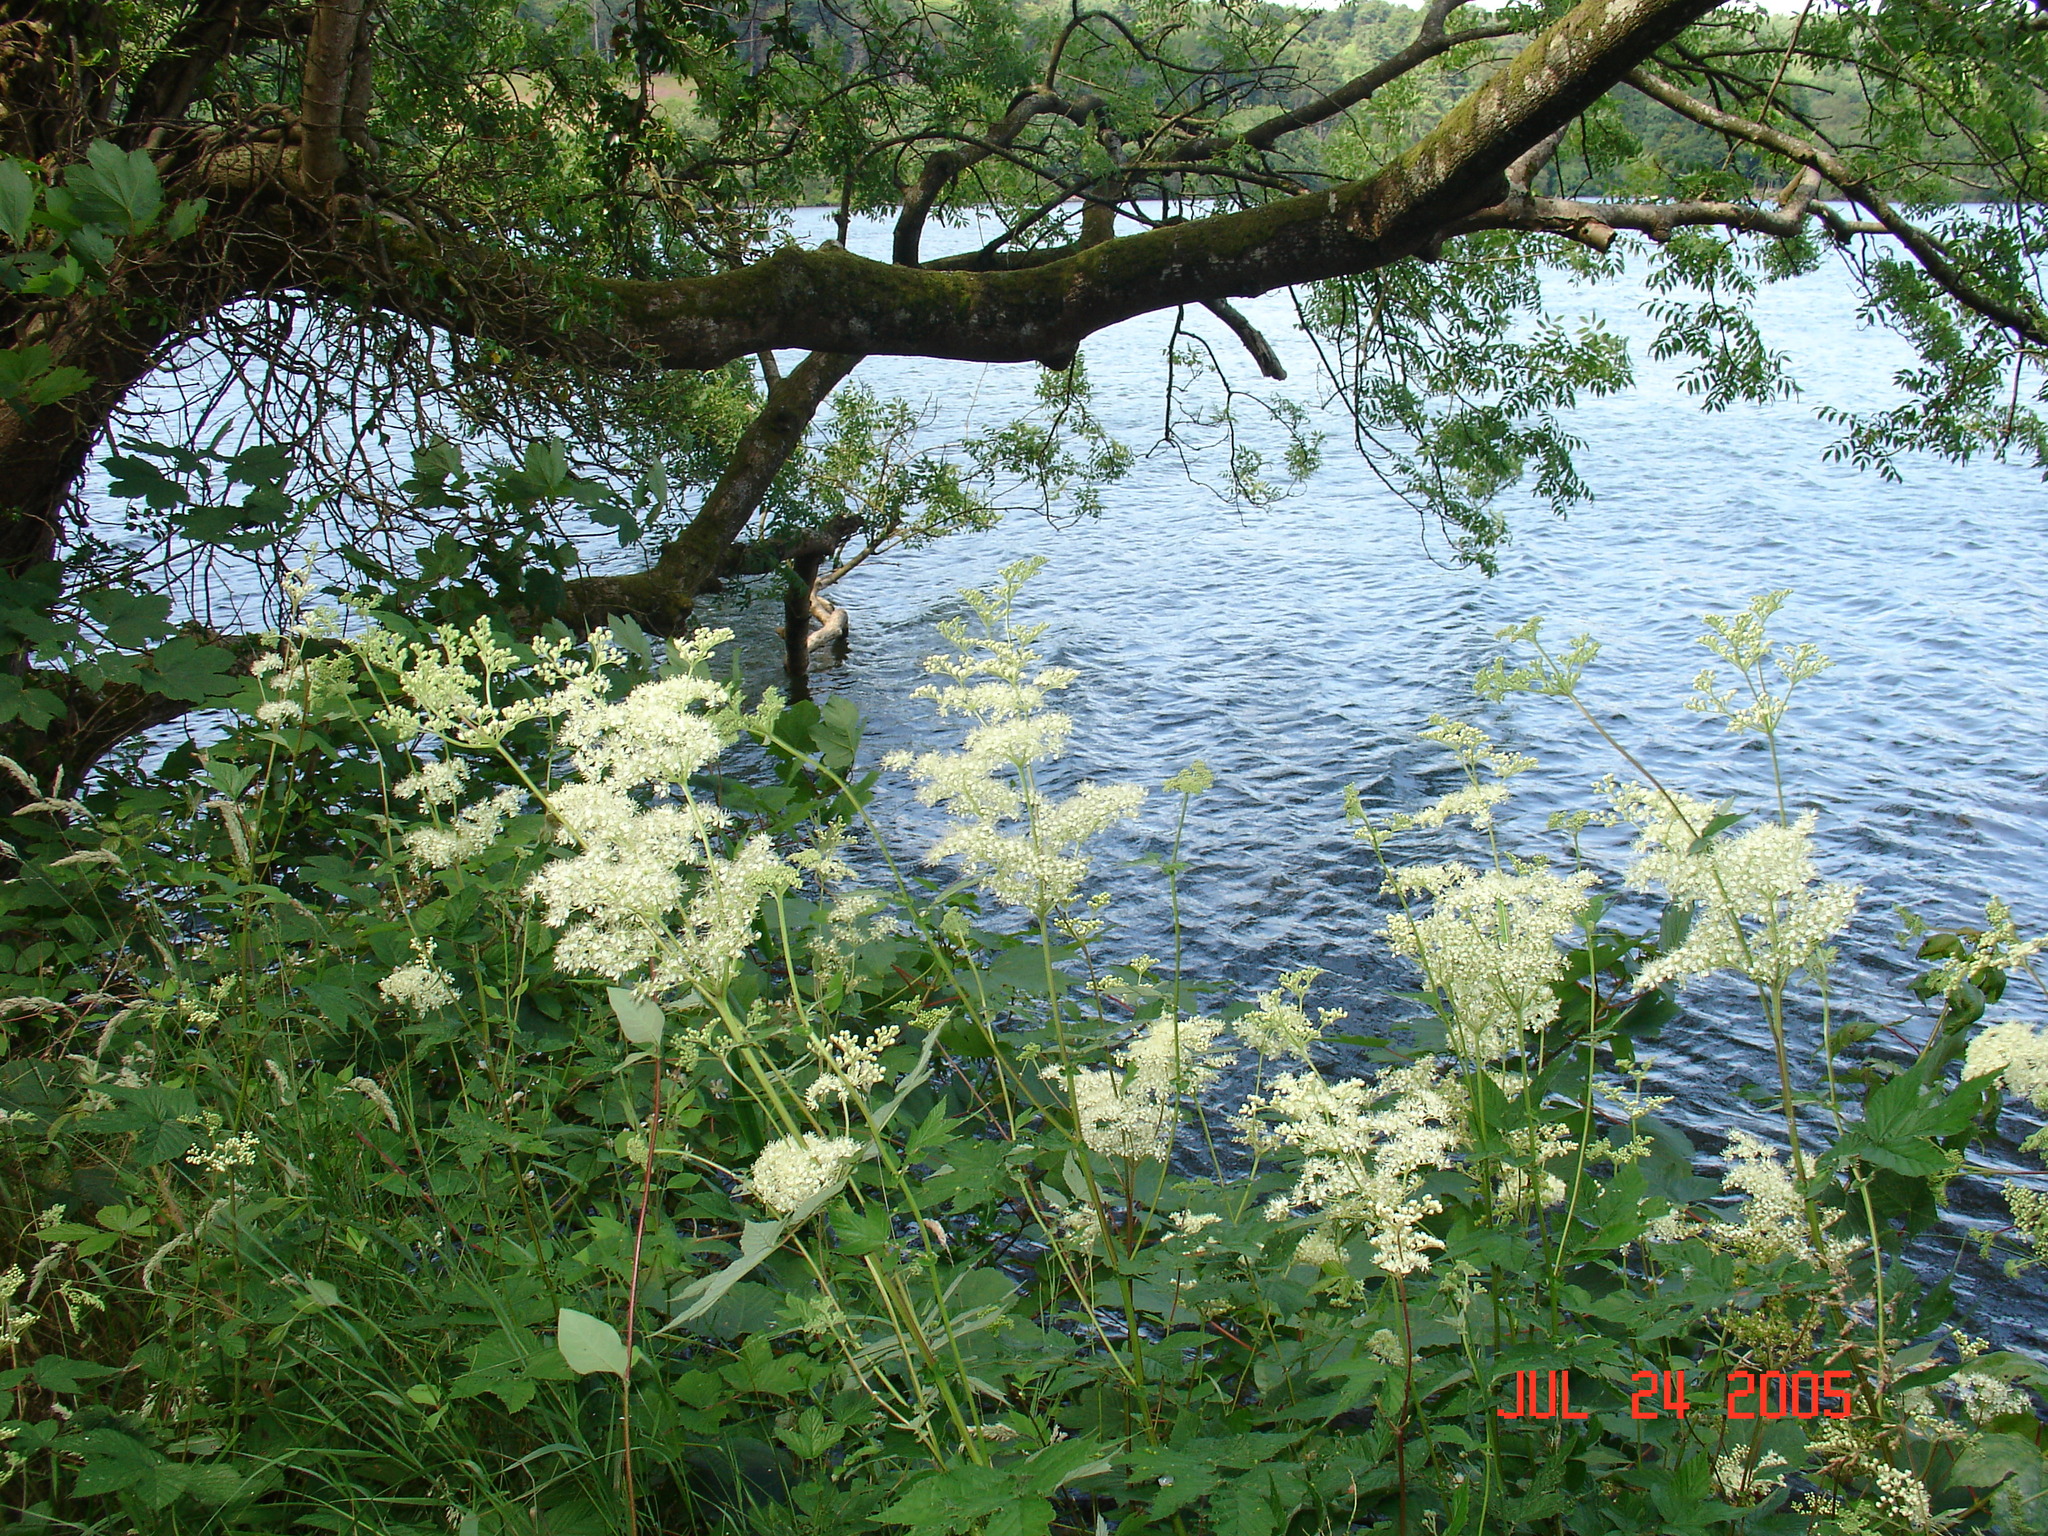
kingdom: Plantae
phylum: Tracheophyta
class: Magnoliopsida
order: Rosales
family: Rosaceae
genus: Filipendula
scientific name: Filipendula ulmaria
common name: Meadowsweet
